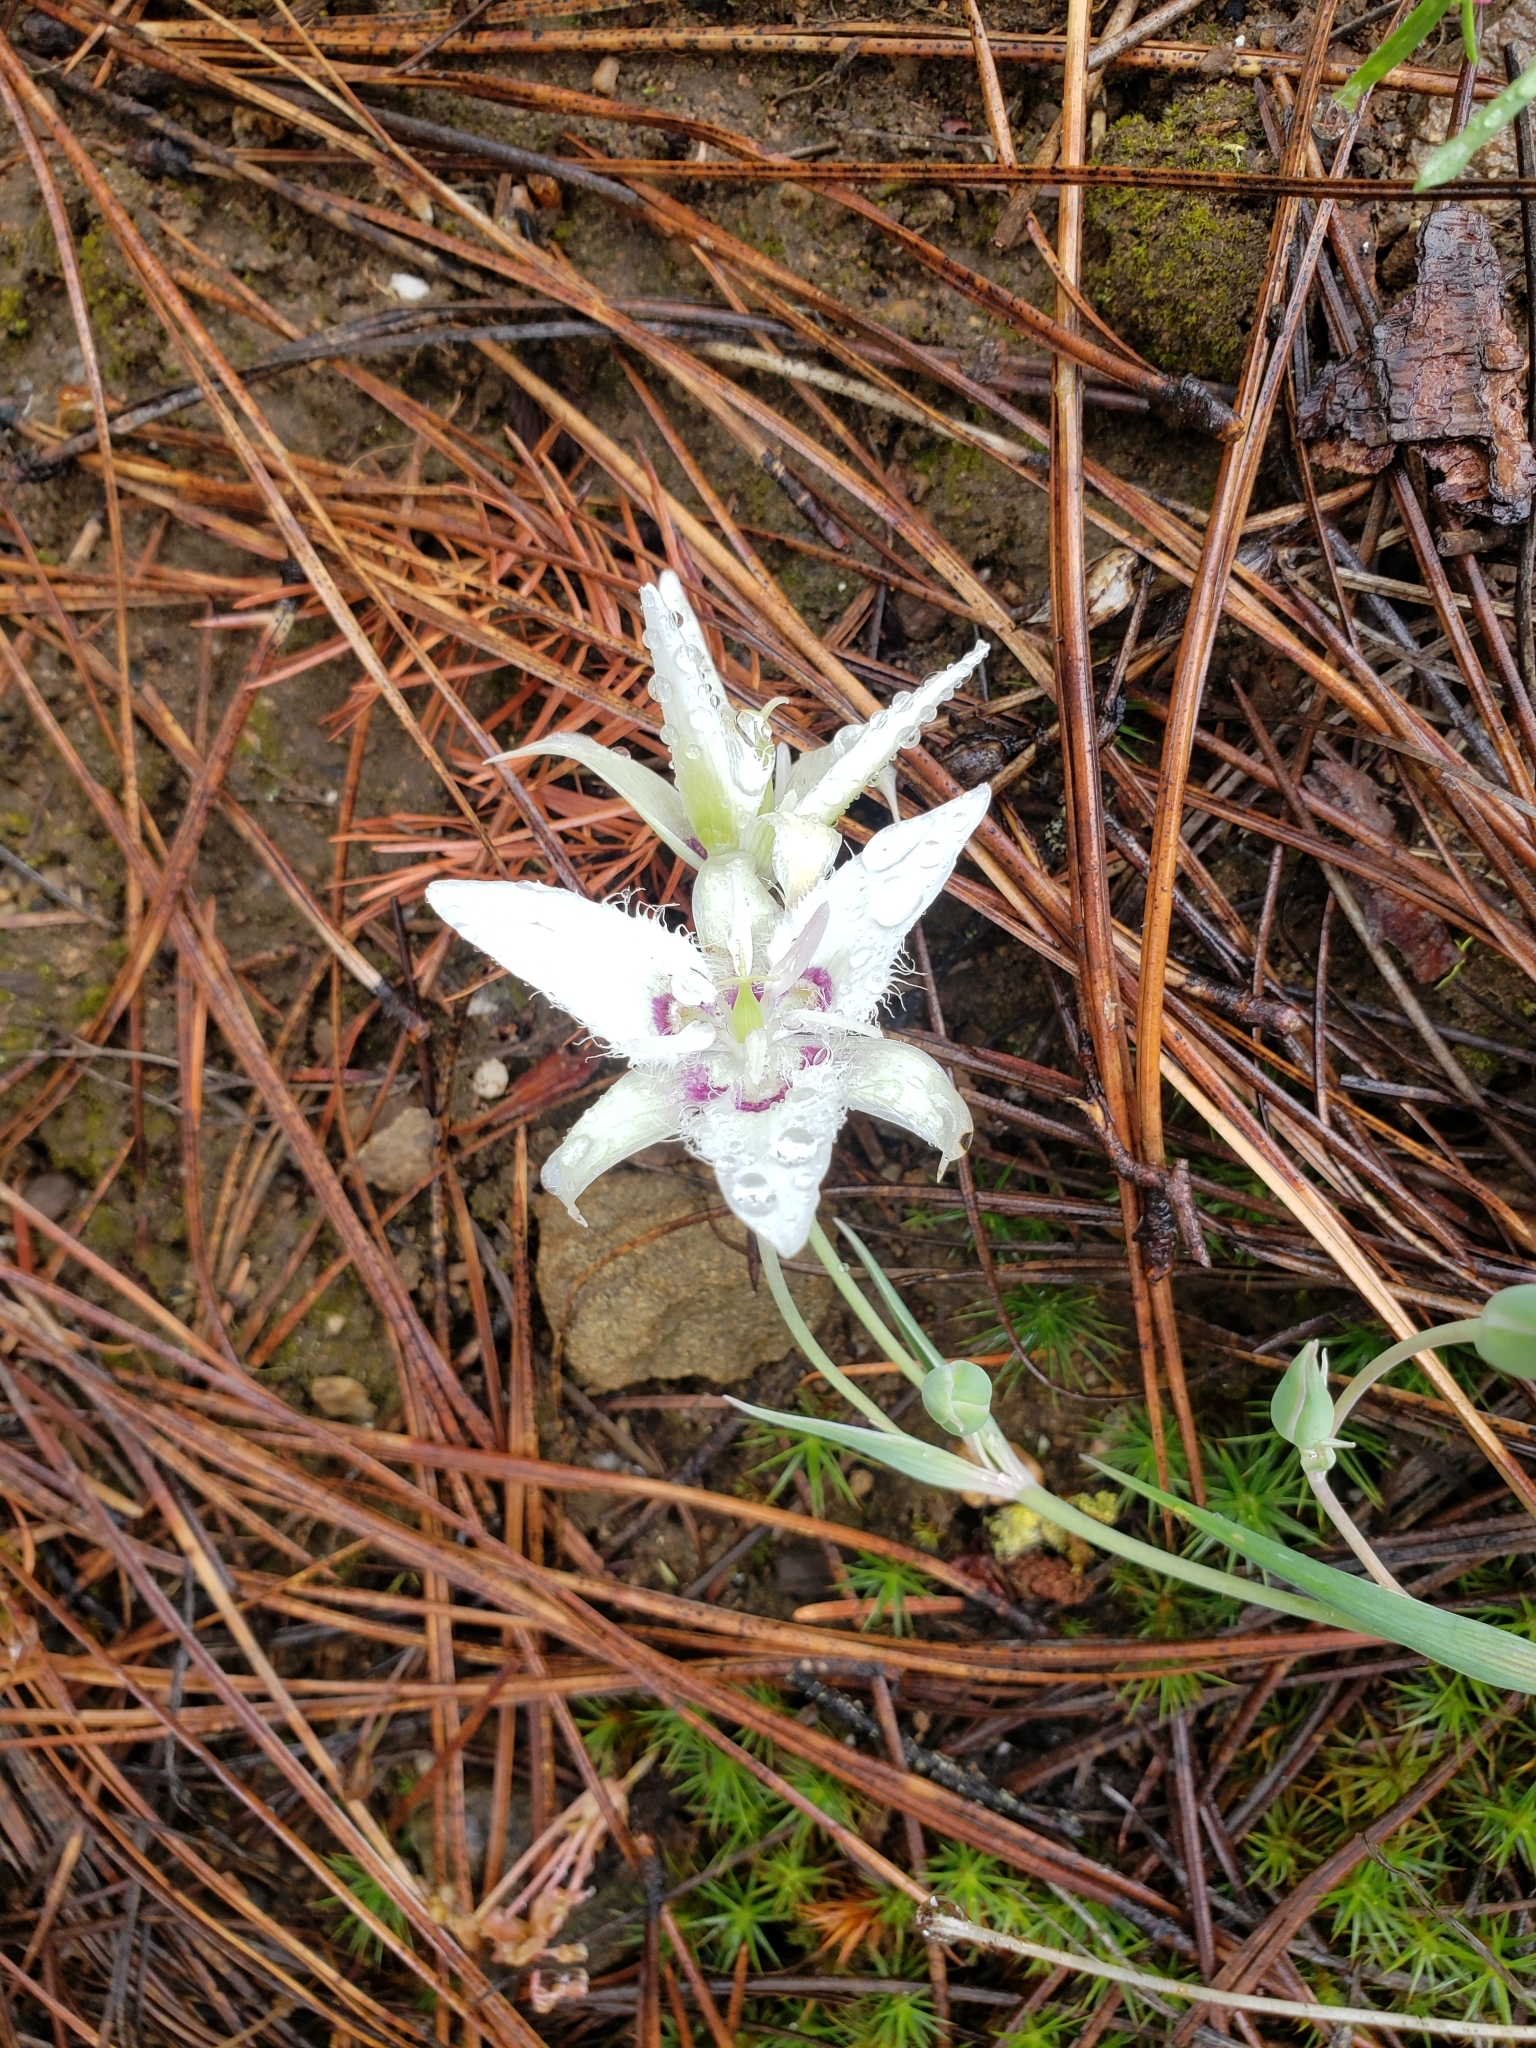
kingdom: Plantae
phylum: Tracheophyta
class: Liliopsida
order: Liliales
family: Liliaceae
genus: Calochortus
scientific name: Calochortus lyallii
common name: Lyall's mariposa lily
